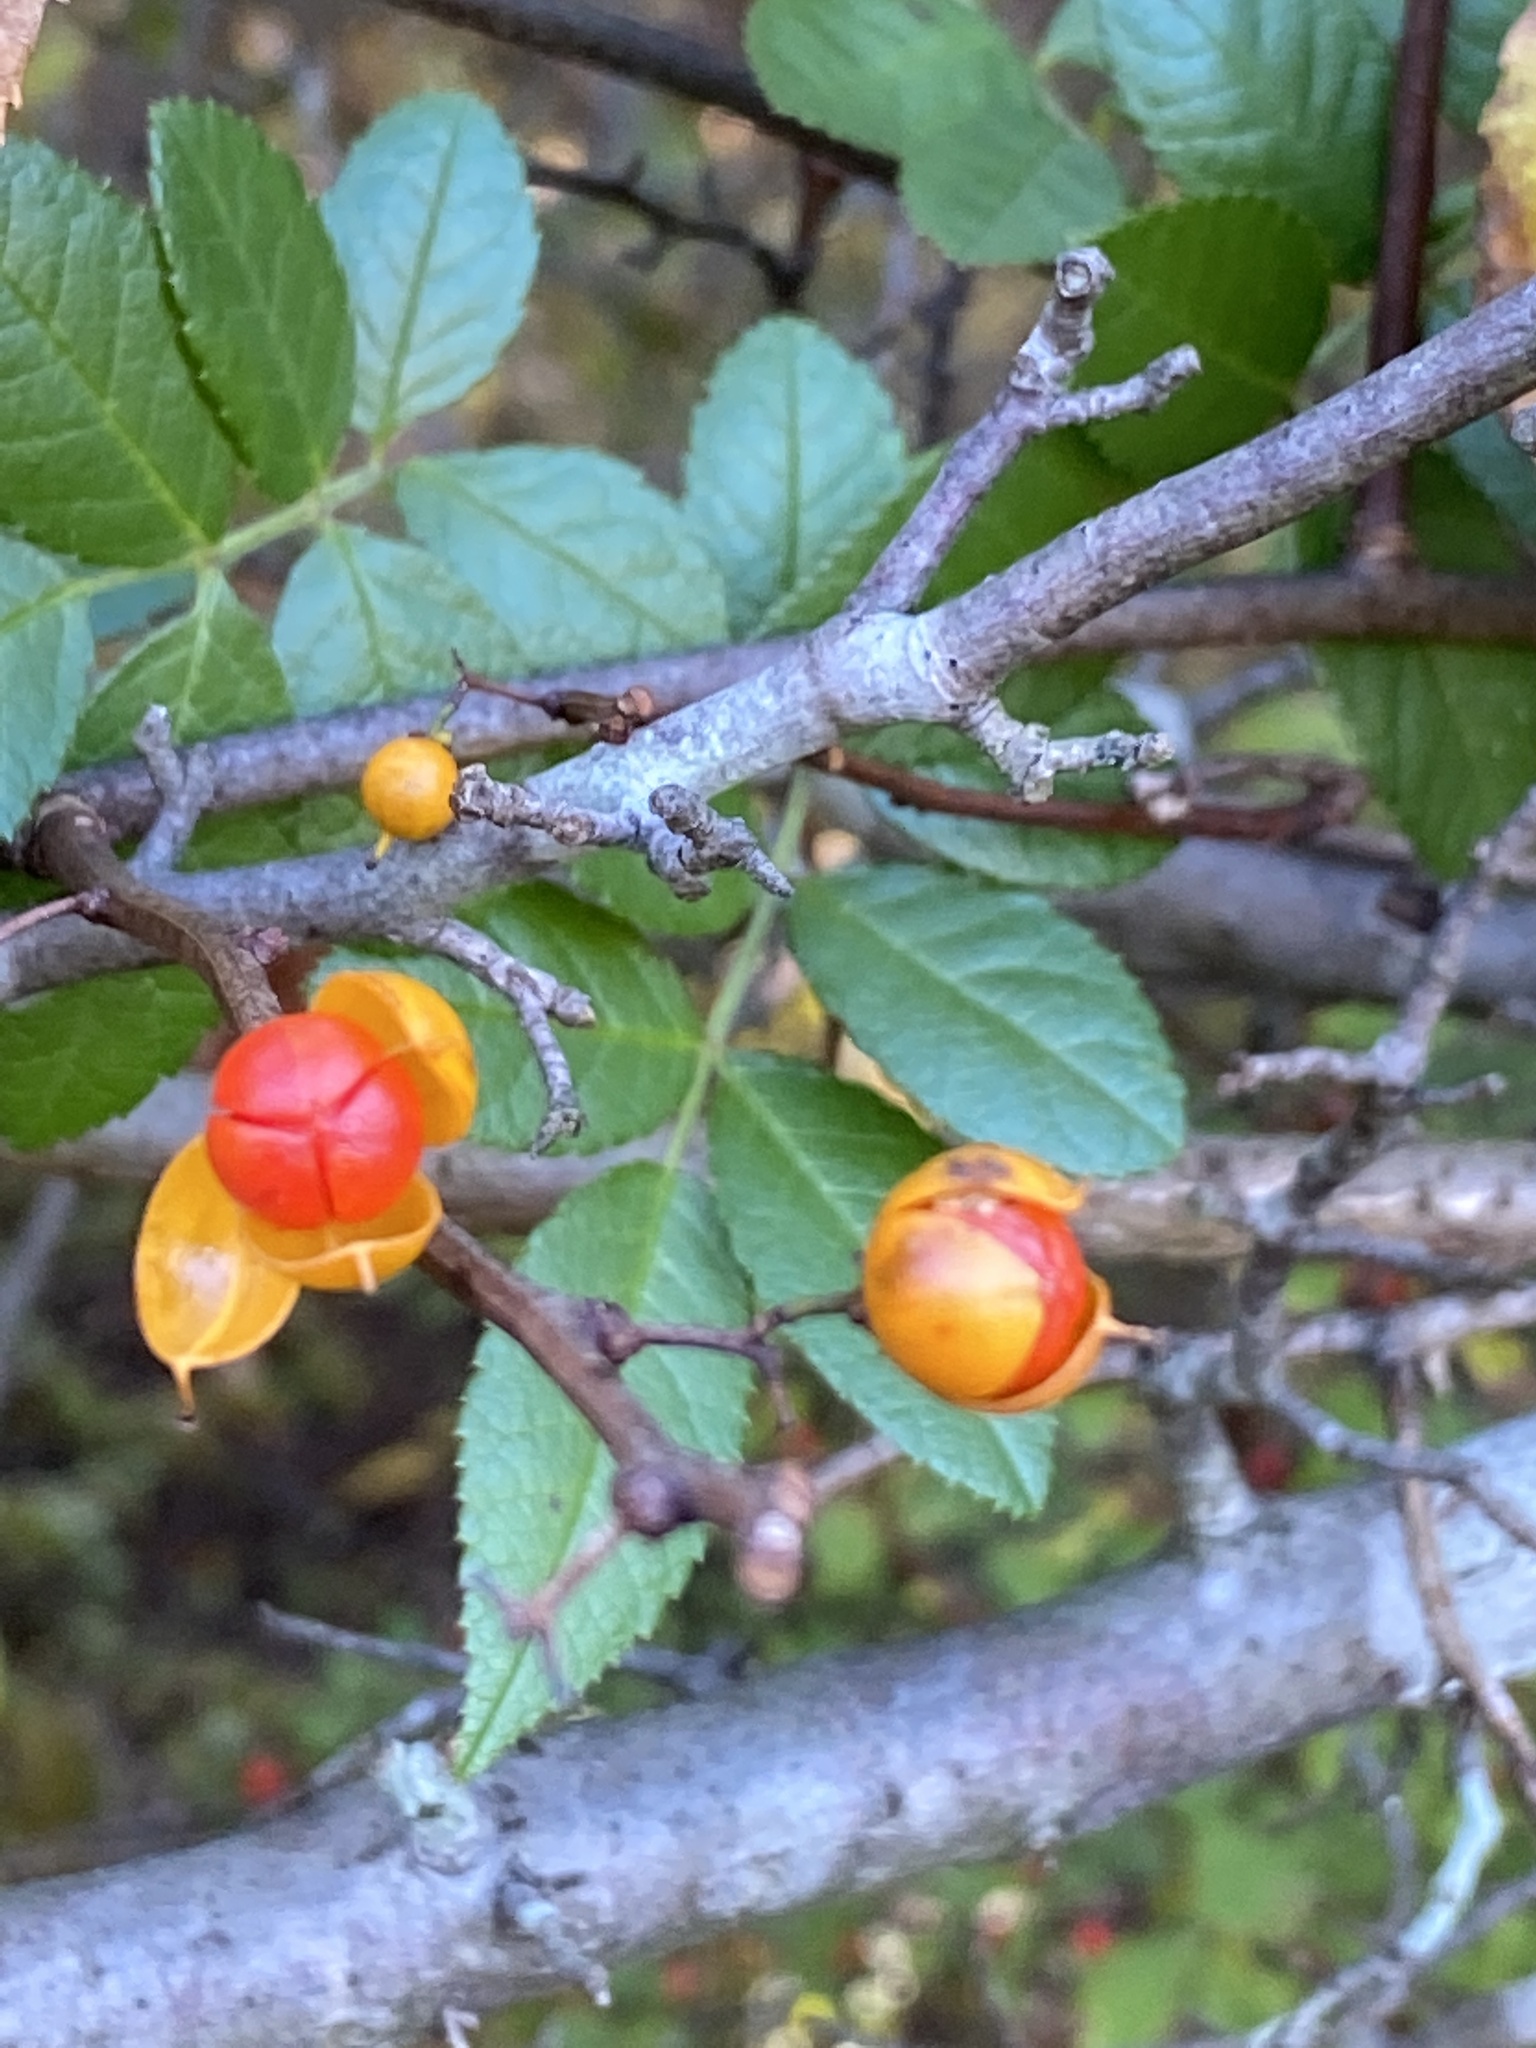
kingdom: Plantae
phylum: Tracheophyta
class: Magnoliopsida
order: Celastrales
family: Celastraceae
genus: Celastrus
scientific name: Celastrus orbiculatus
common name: Oriental bittersweet
